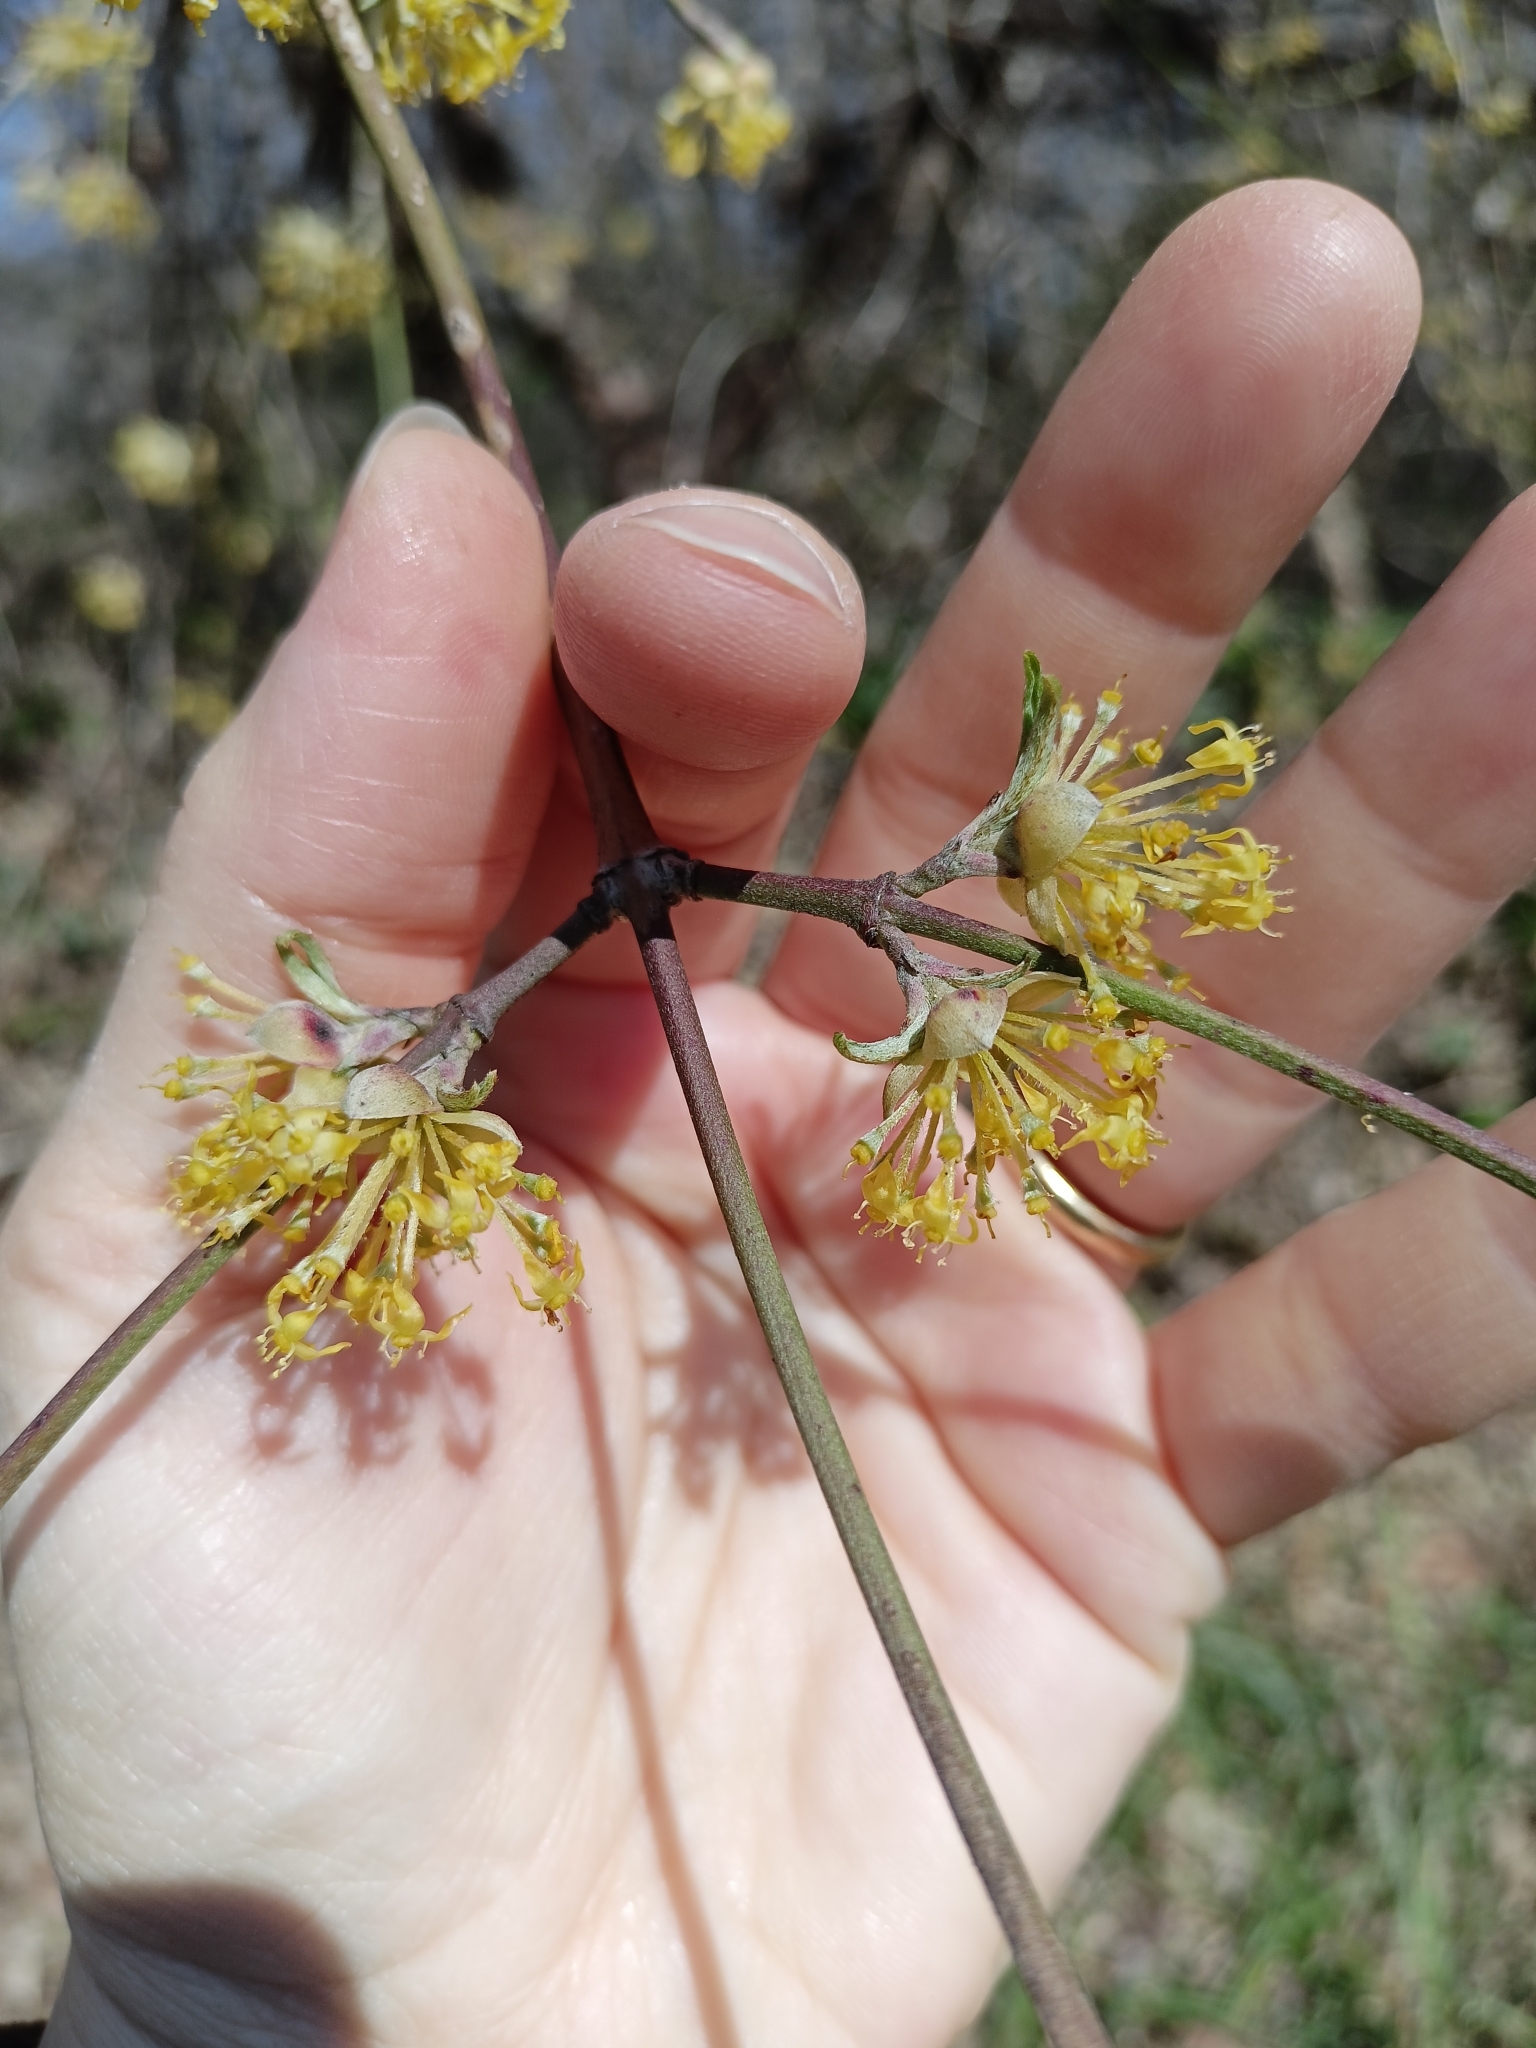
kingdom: Plantae
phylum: Tracheophyta
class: Magnoliopsida
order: Cornales
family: Cornaceae
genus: Cornus
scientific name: Cornus mas
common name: Cornelian-cherry
